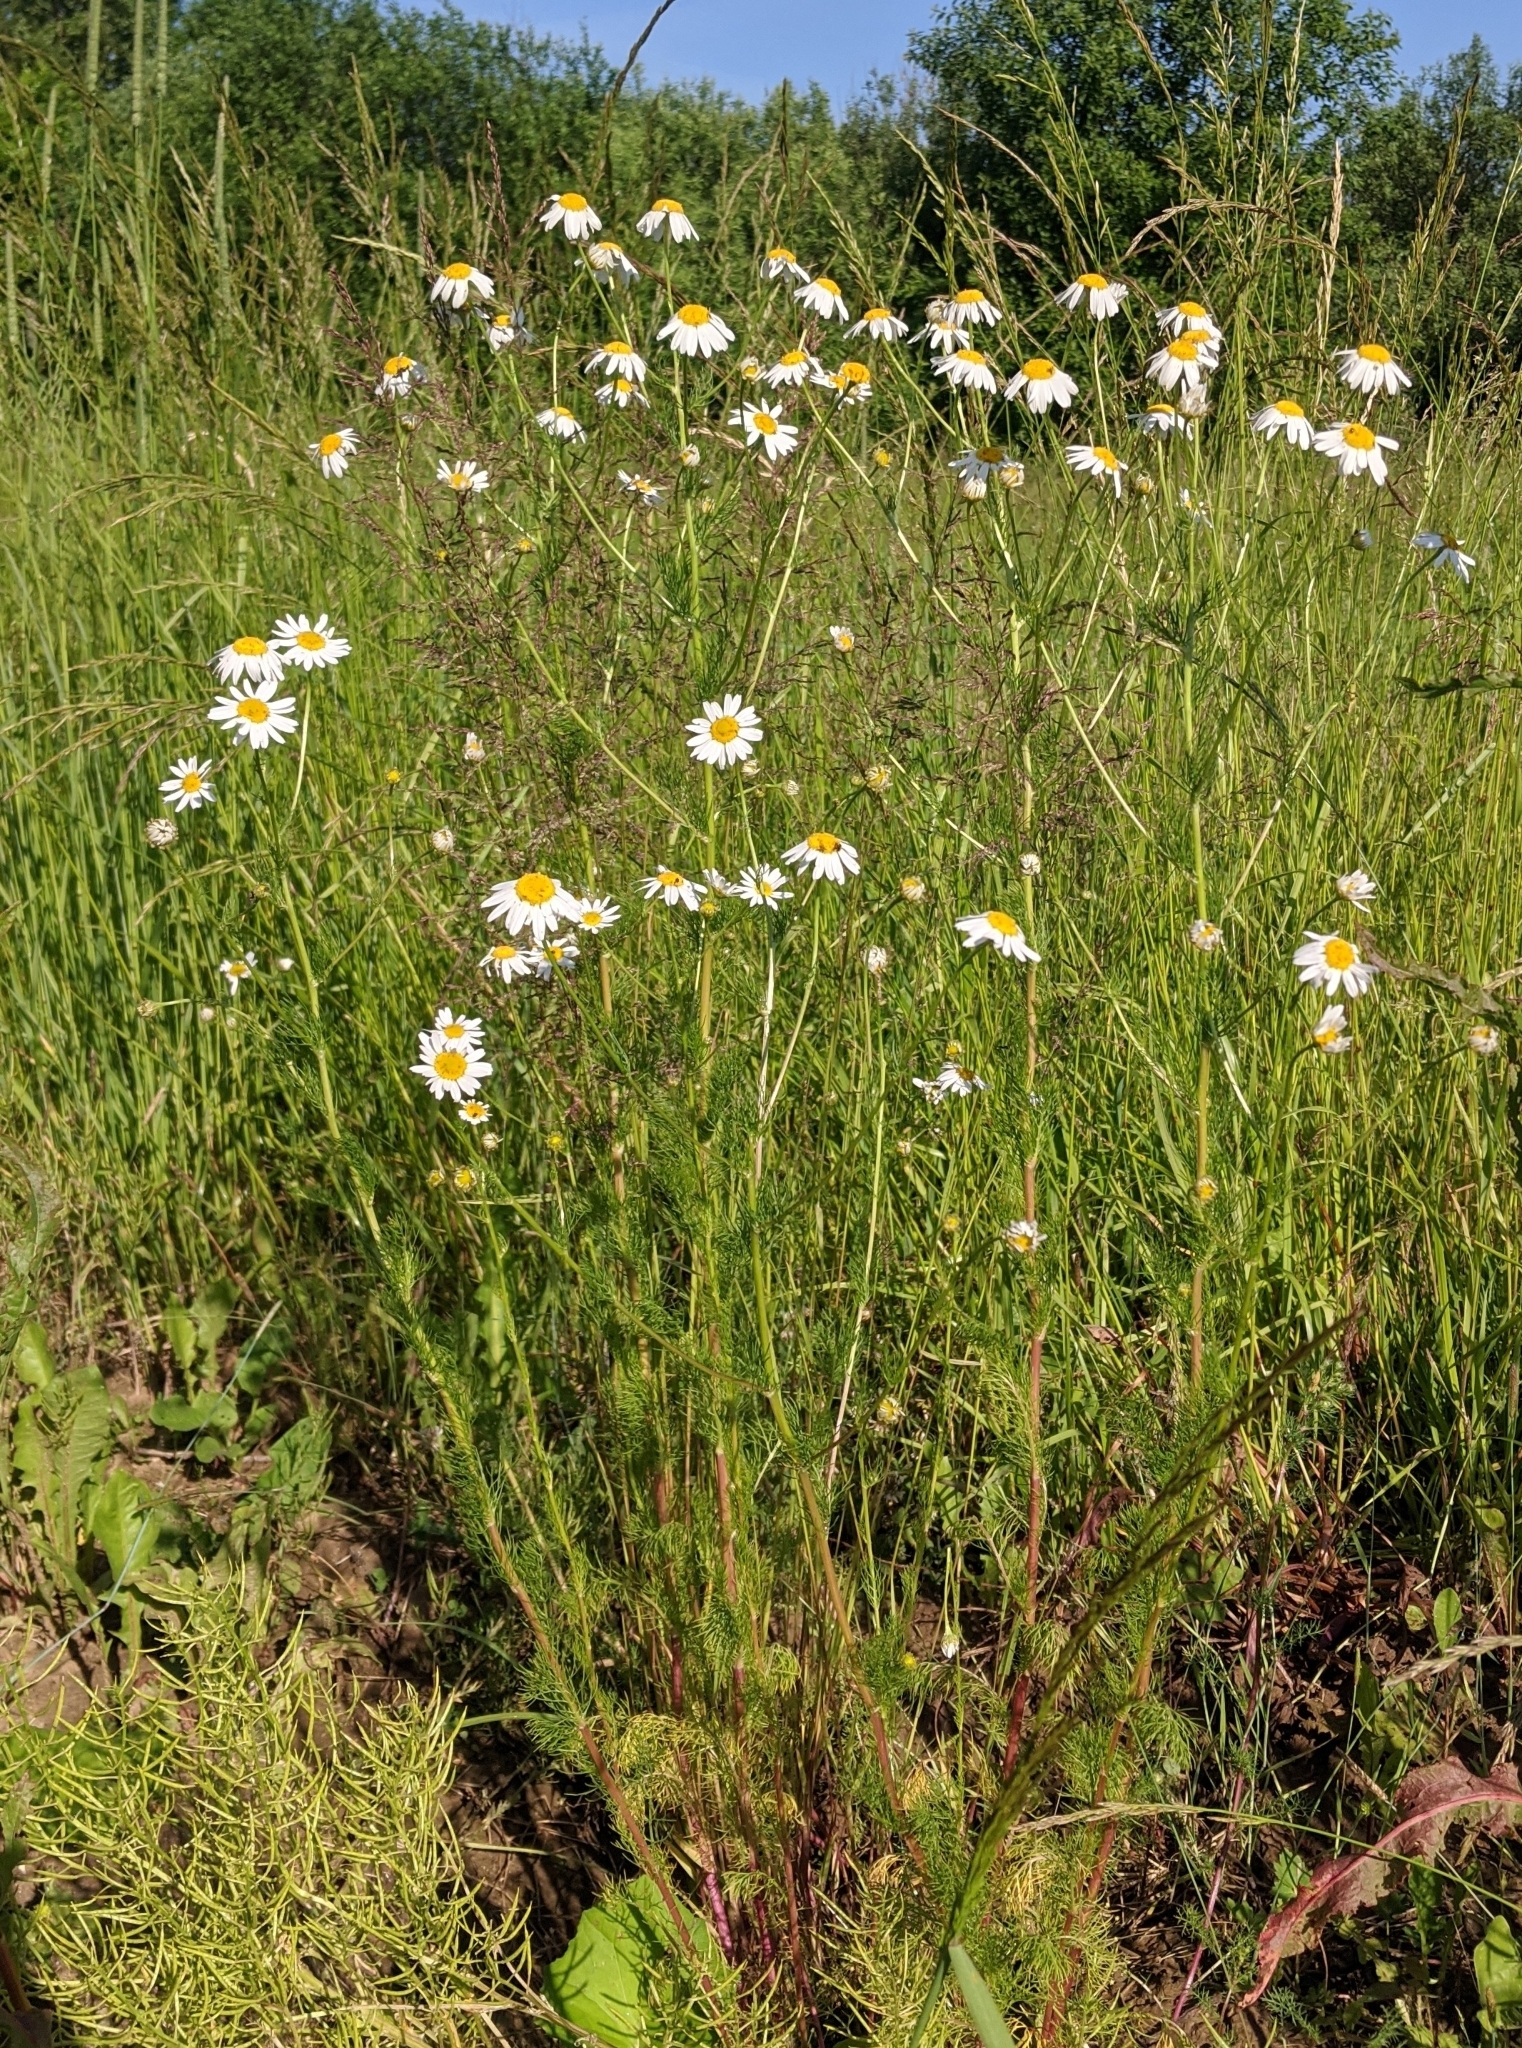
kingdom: Plantae
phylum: Tracheophyta
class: Magnoliopsida
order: Asterales
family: Asteraceae
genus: Tripleurospermum
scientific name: Tripleurospermum inodorum
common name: Scentless mayweed
